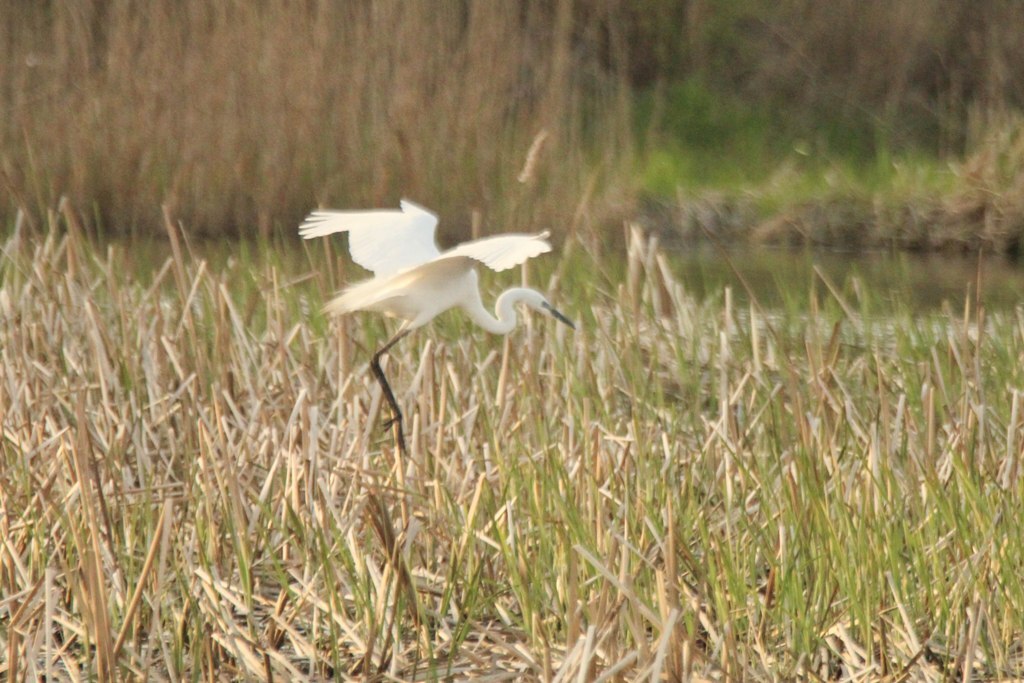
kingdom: Animalia
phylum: Chordata
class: Aves
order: Pelecaniformes
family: Ardeidae
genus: Ardea
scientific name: Ardea modesta
